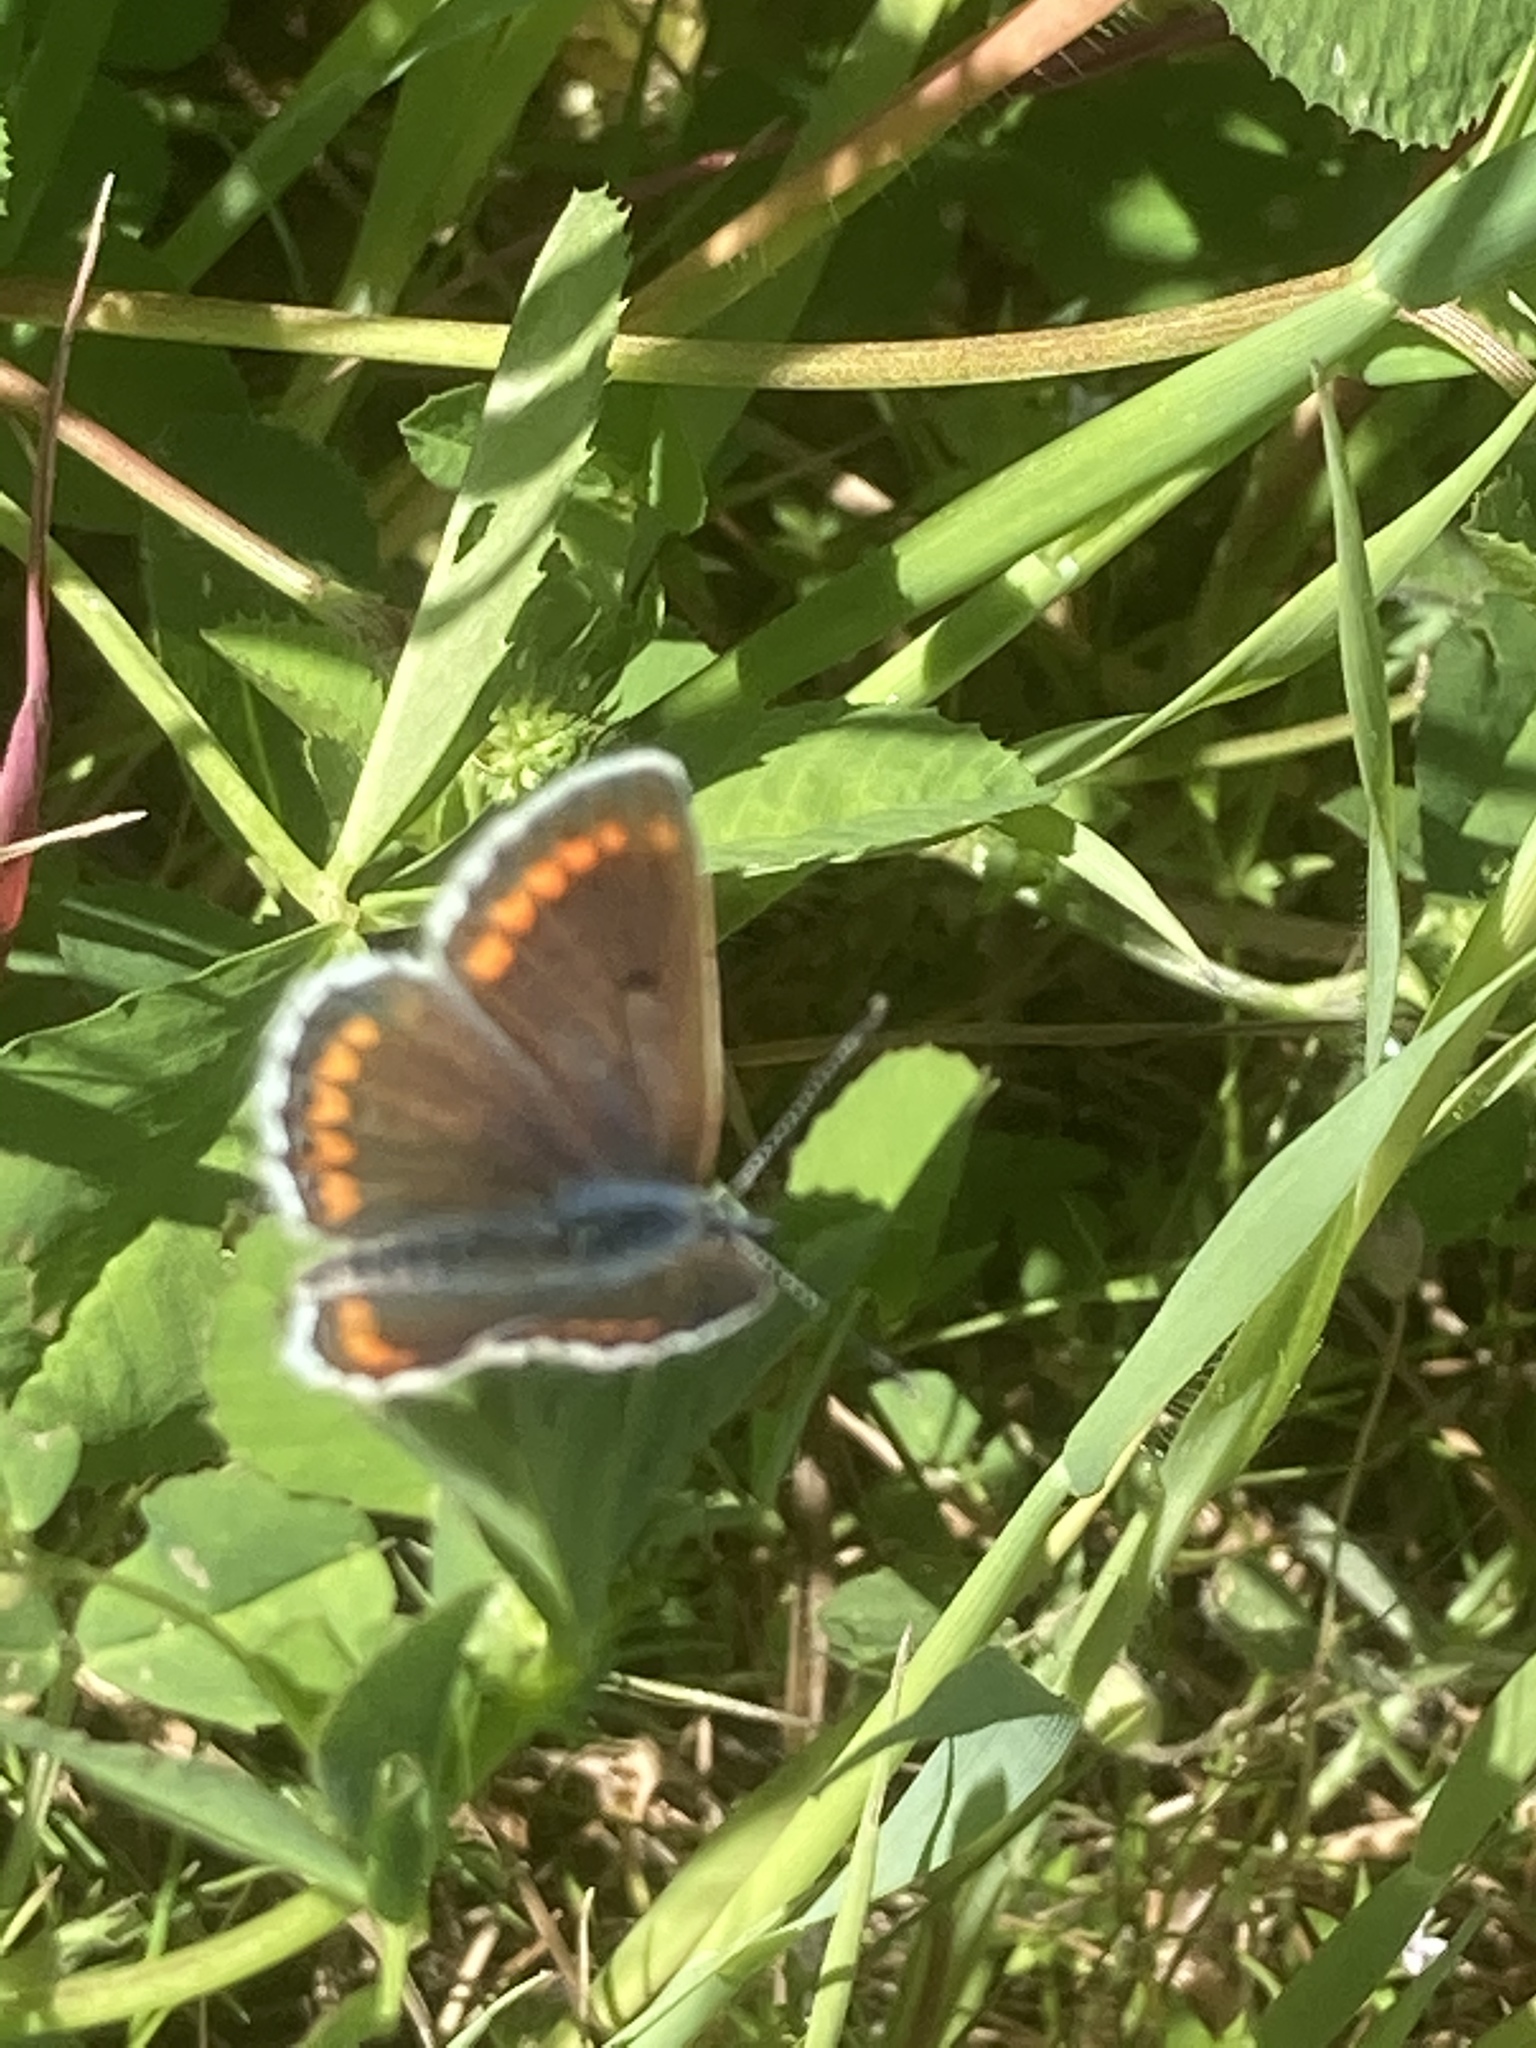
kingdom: Animalia
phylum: Arthropoda
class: Insecta
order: Lepidoptera
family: Lycaenidae
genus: Aricia
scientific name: Aricia agestis
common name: Brown argus
